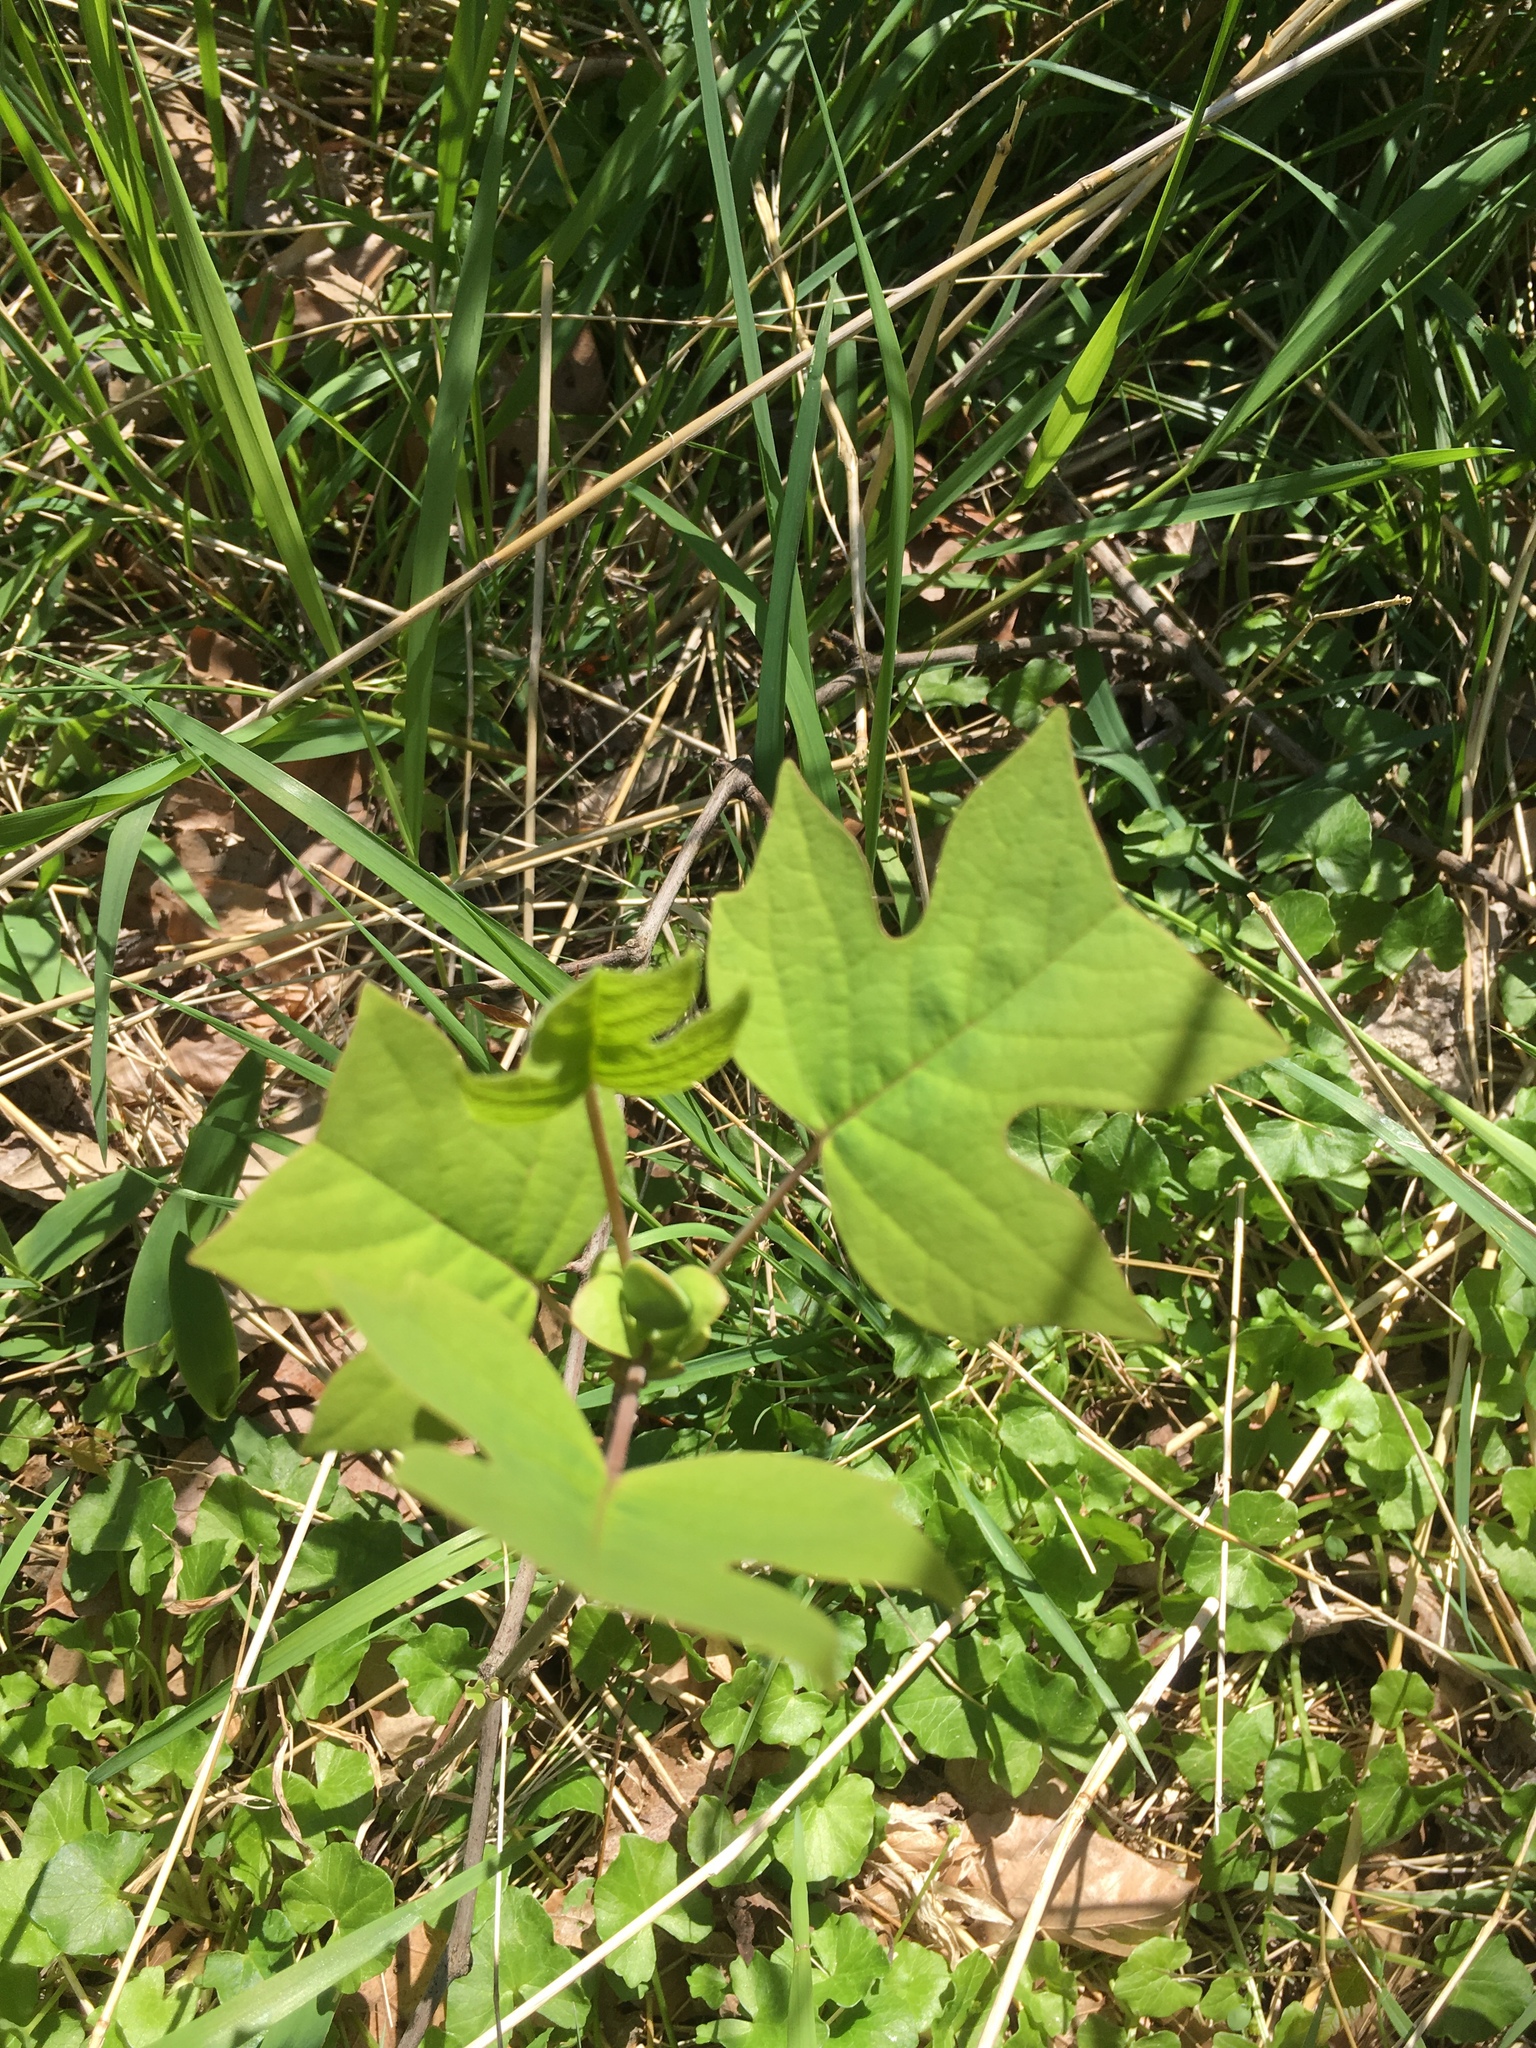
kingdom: Plantae
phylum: Tracheophyta
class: Magnoliopsida
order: Magnoliales
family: Magnoliaceae
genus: Liriodendron
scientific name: Liriodendron tulipifera
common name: Tulip tree
